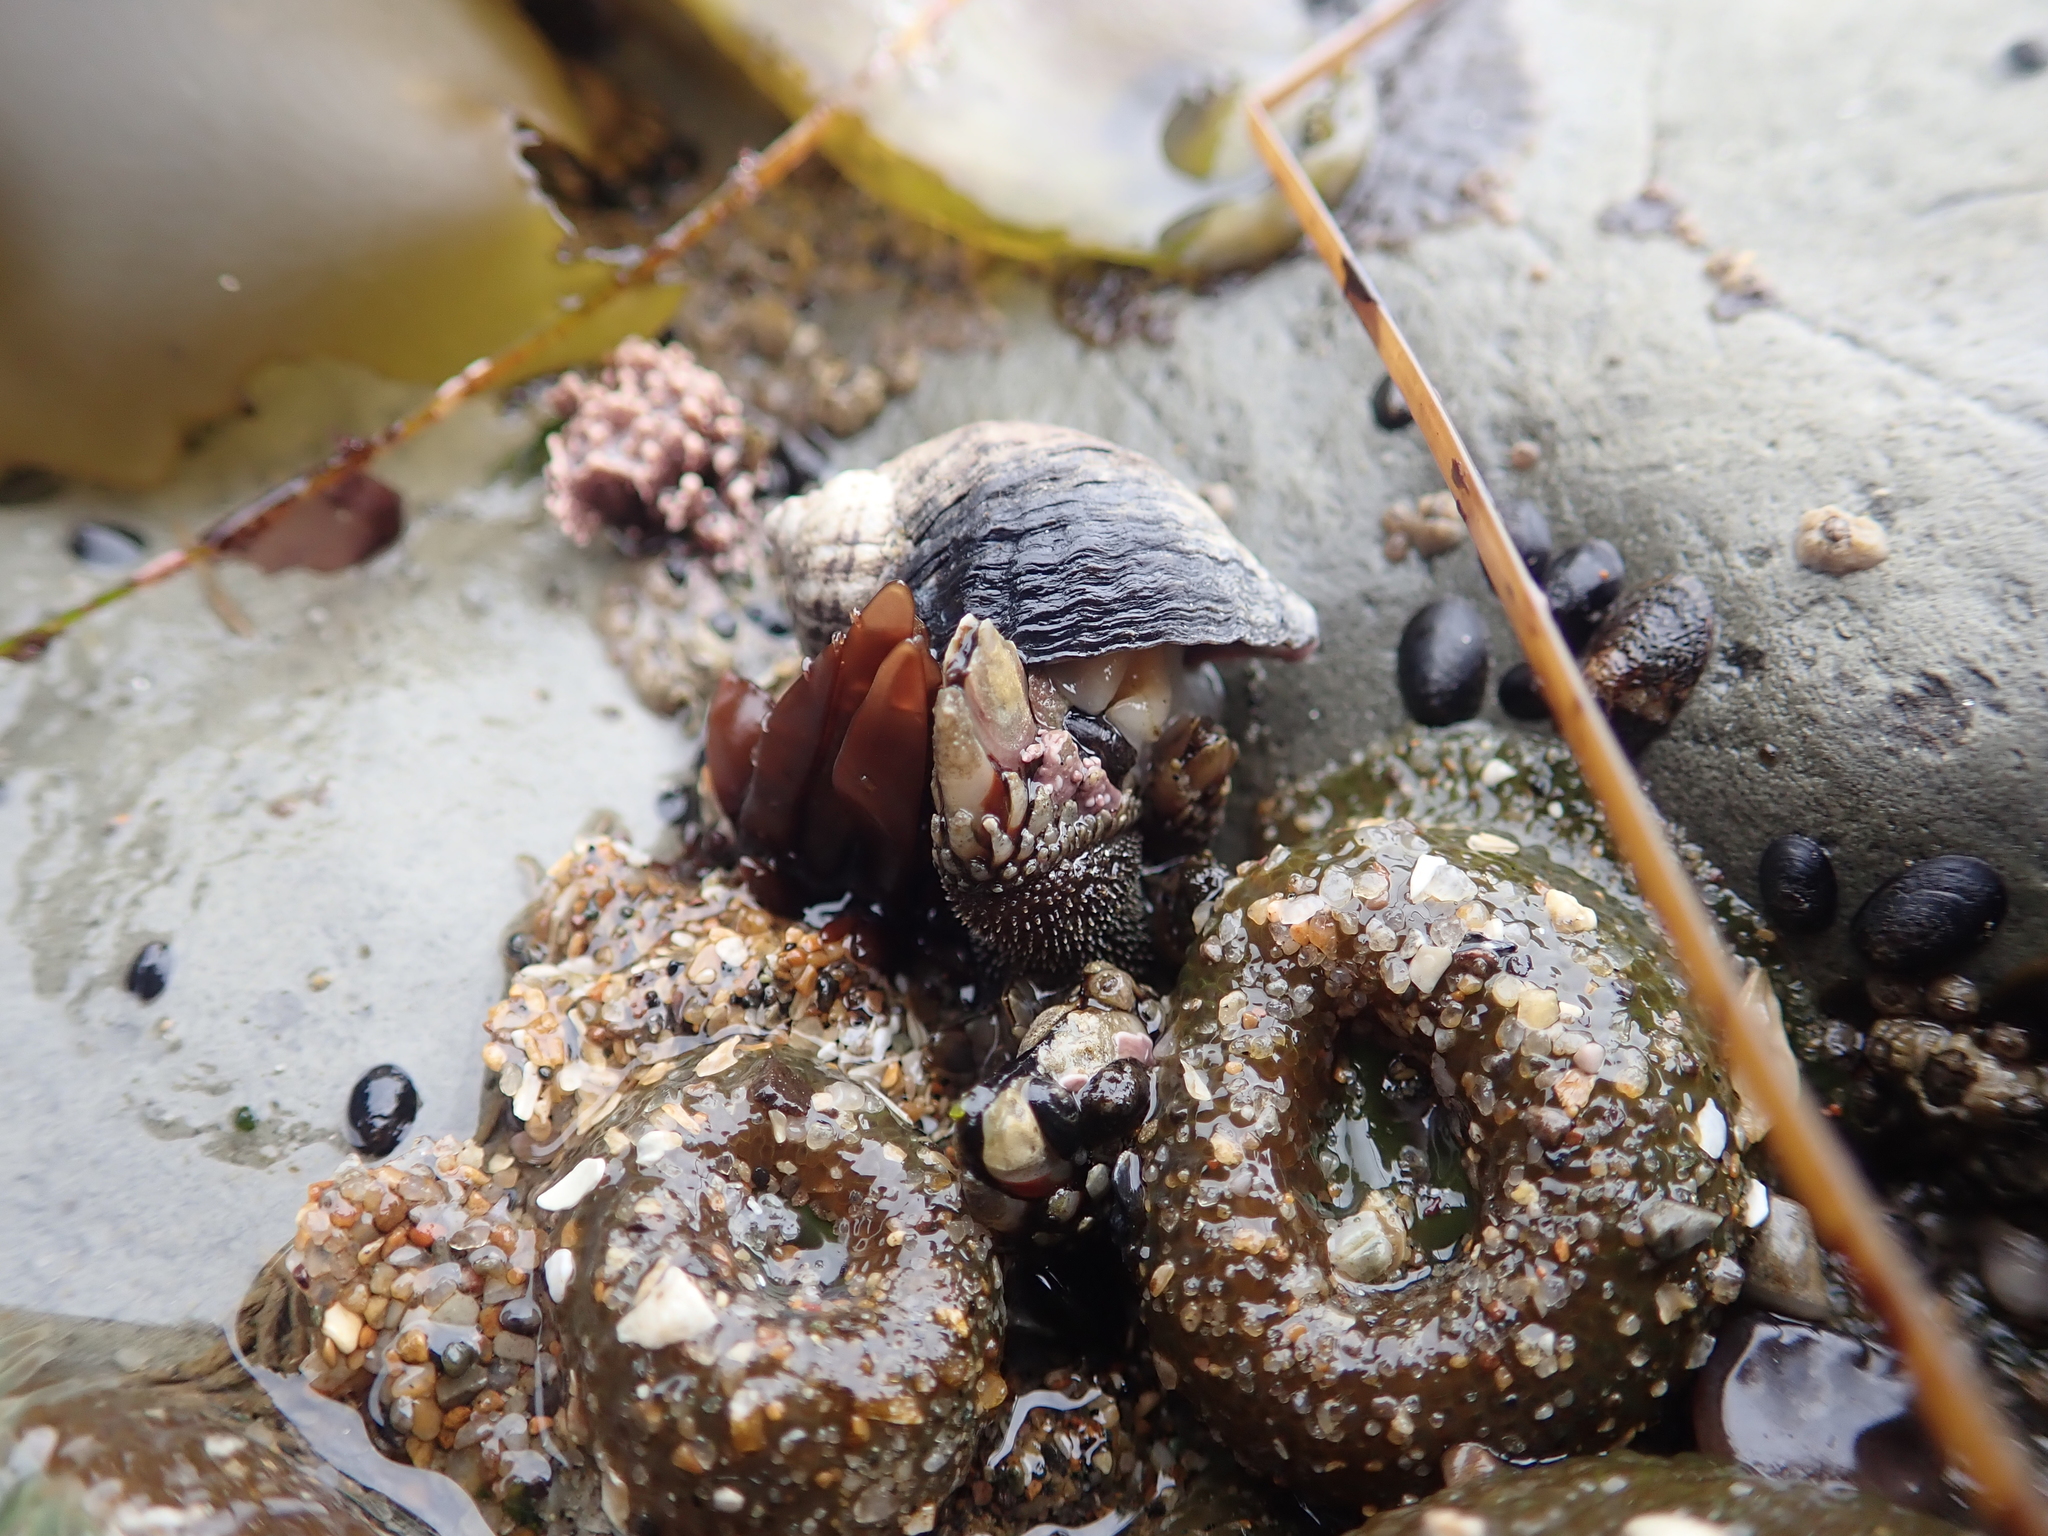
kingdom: Animalia
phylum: Cnidaria
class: Anthozoa
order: Actiniaria
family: Actiniidae
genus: Anthopleura
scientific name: Anthopleura elegantissima
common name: Clonal anemone
